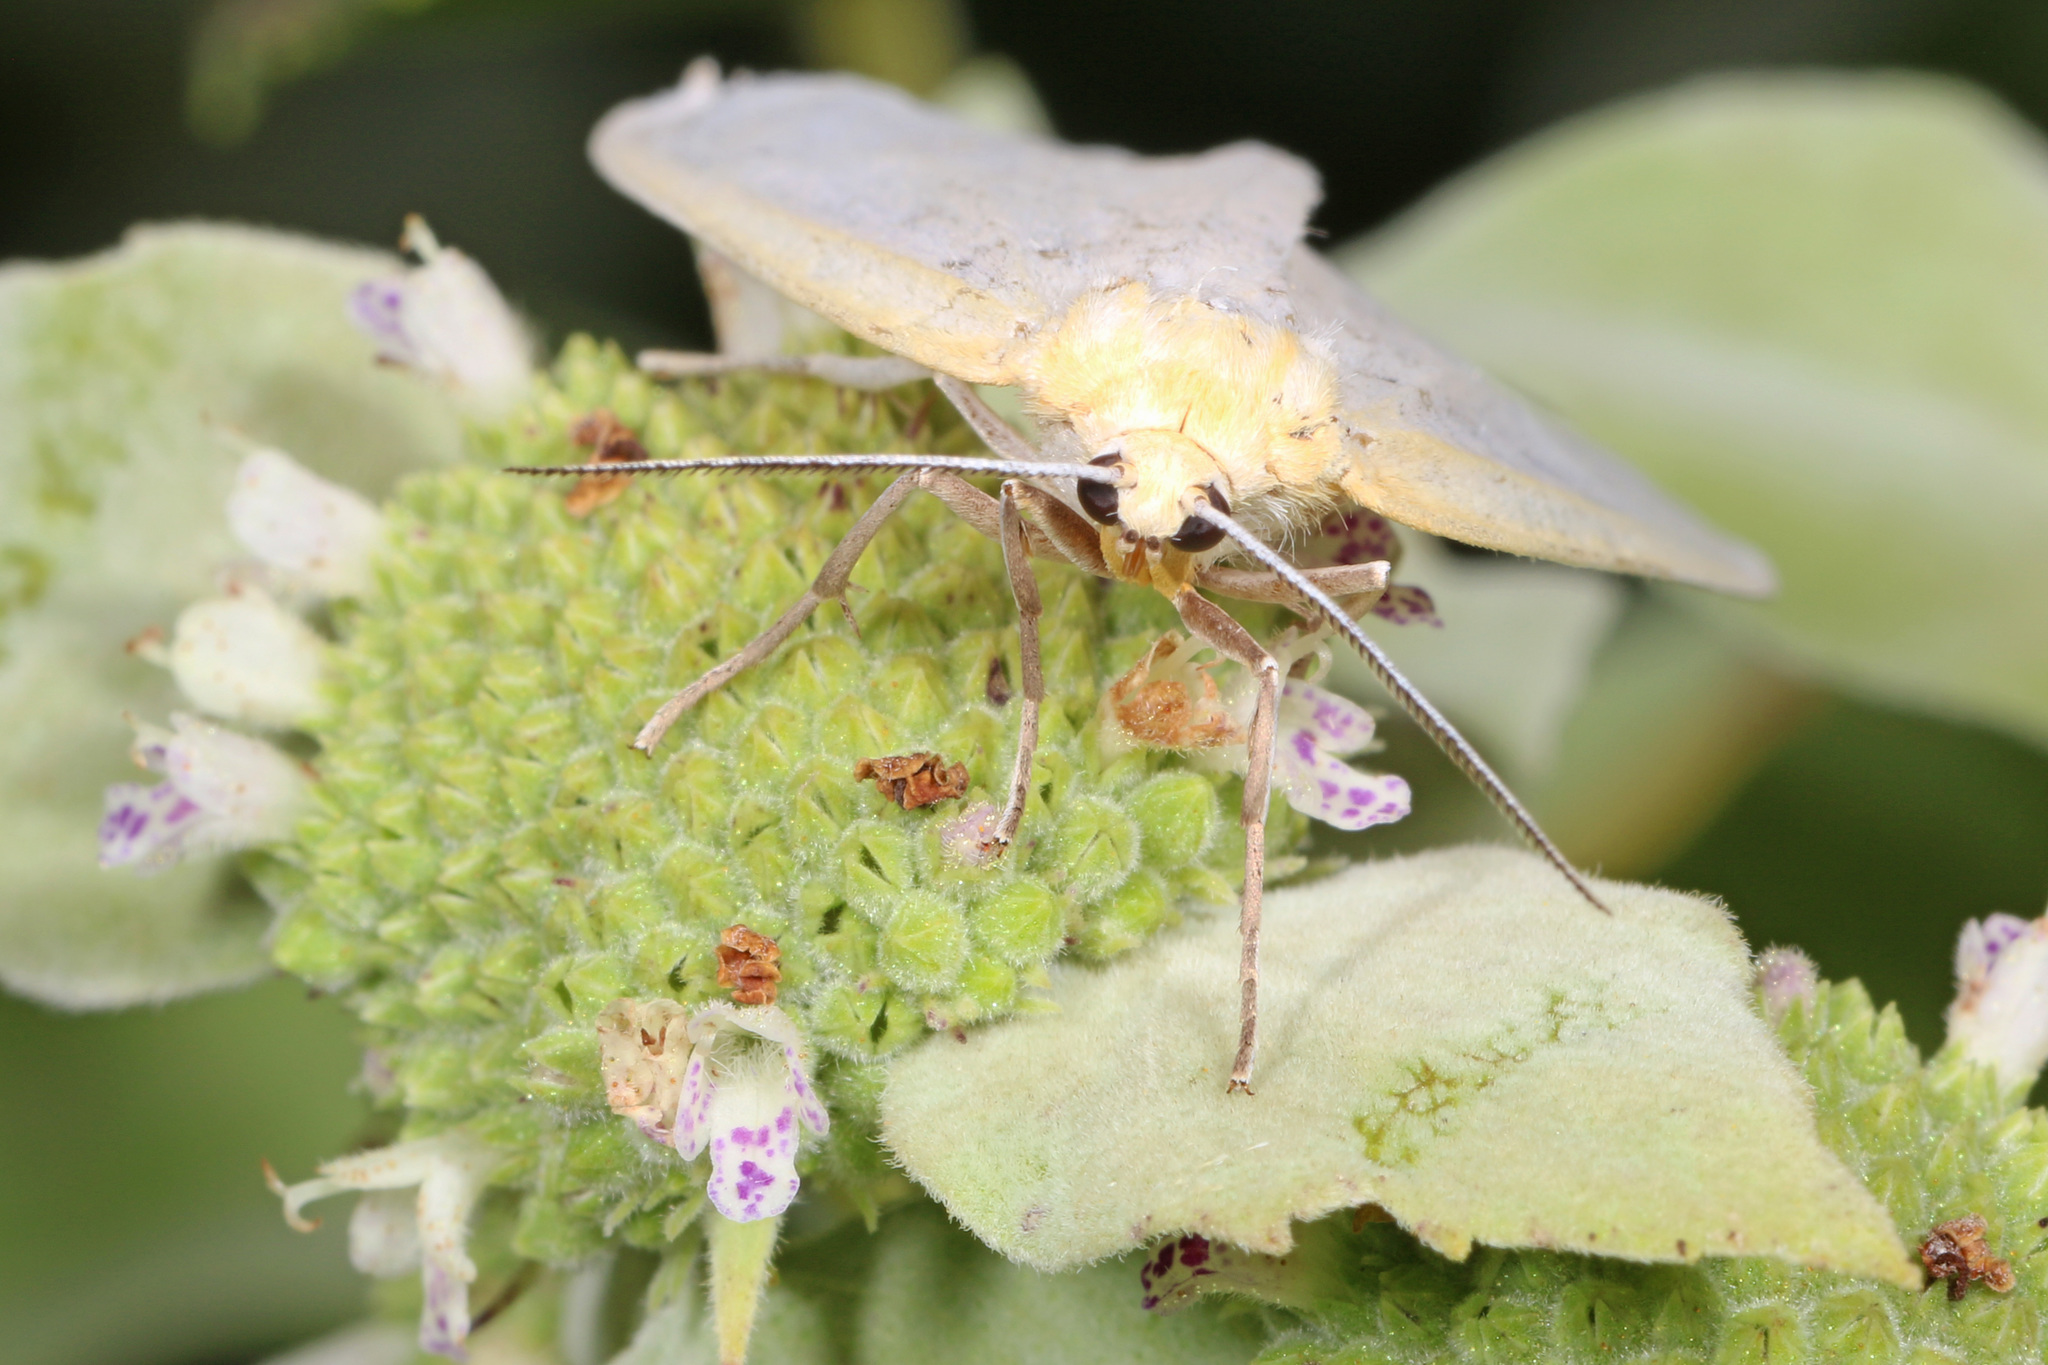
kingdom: Animalia
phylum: Arthropoda
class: Insecta
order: Lepidoptera
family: Erebidae
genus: Cycnia
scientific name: Cycnia tenera
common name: Delicate cycnia moth
